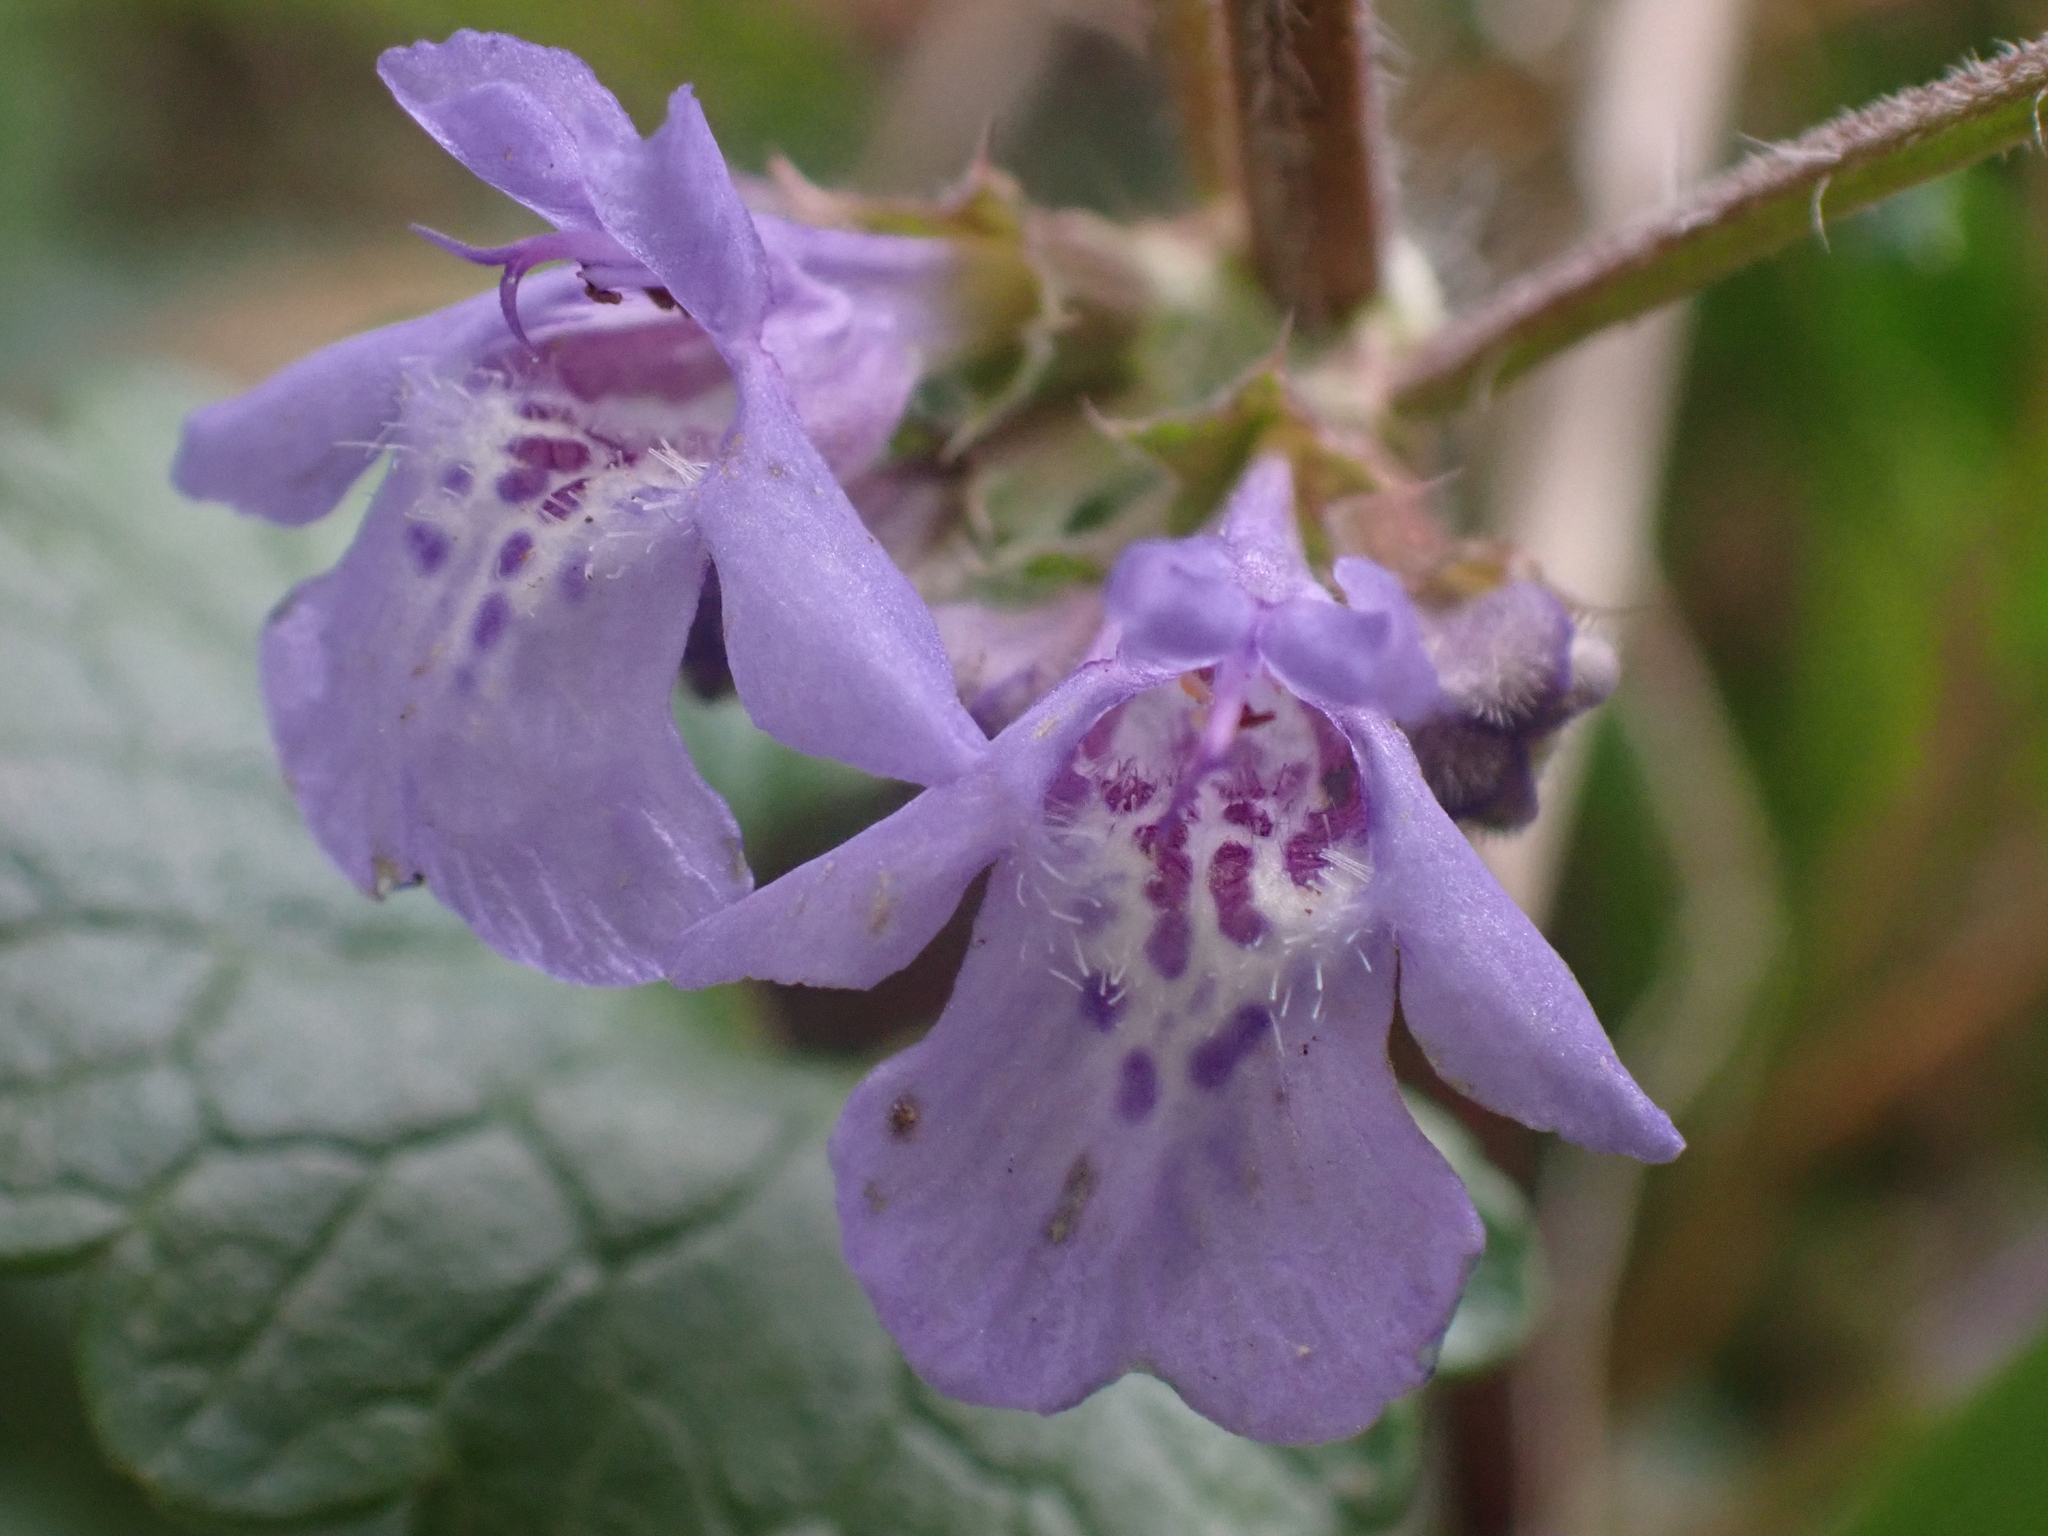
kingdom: Plantae
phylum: Tracheophyta
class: Magnoliopsida
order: Lamiales
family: Lamiaceae
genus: Glechoma
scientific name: Glechoma hederacea
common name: Ground ivy
